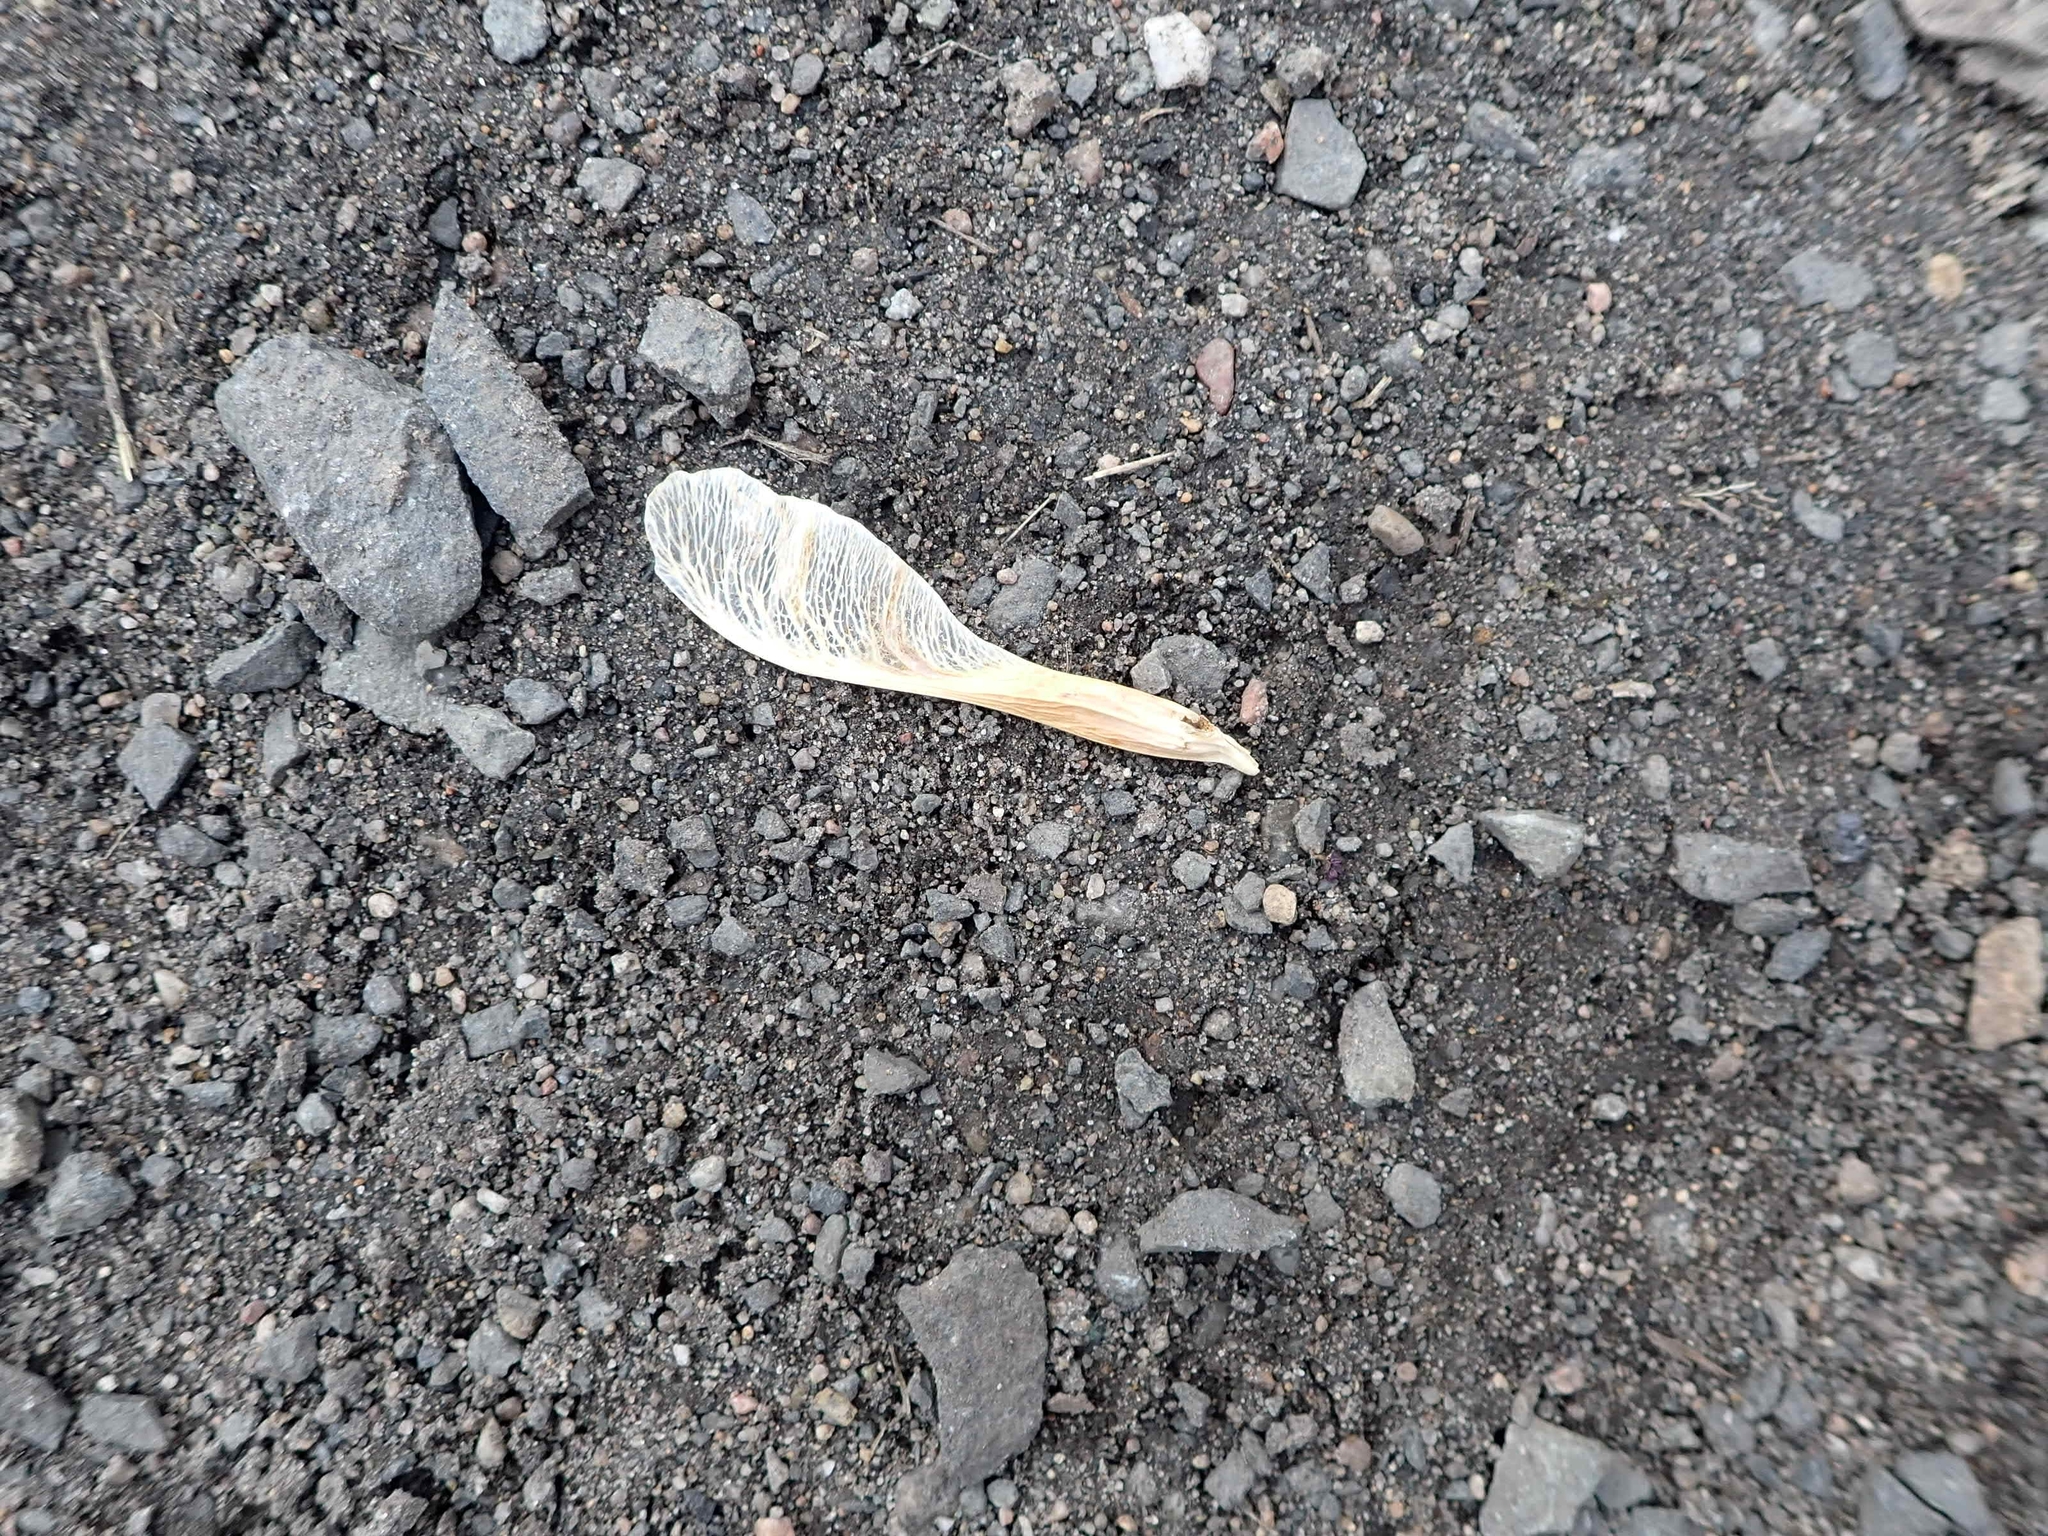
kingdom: Plantae
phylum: Tracheophyta
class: Magnoliopsida
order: Sapindales
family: Sapindaceae
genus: Acer
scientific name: Acer negundo
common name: Ashleaf maple
